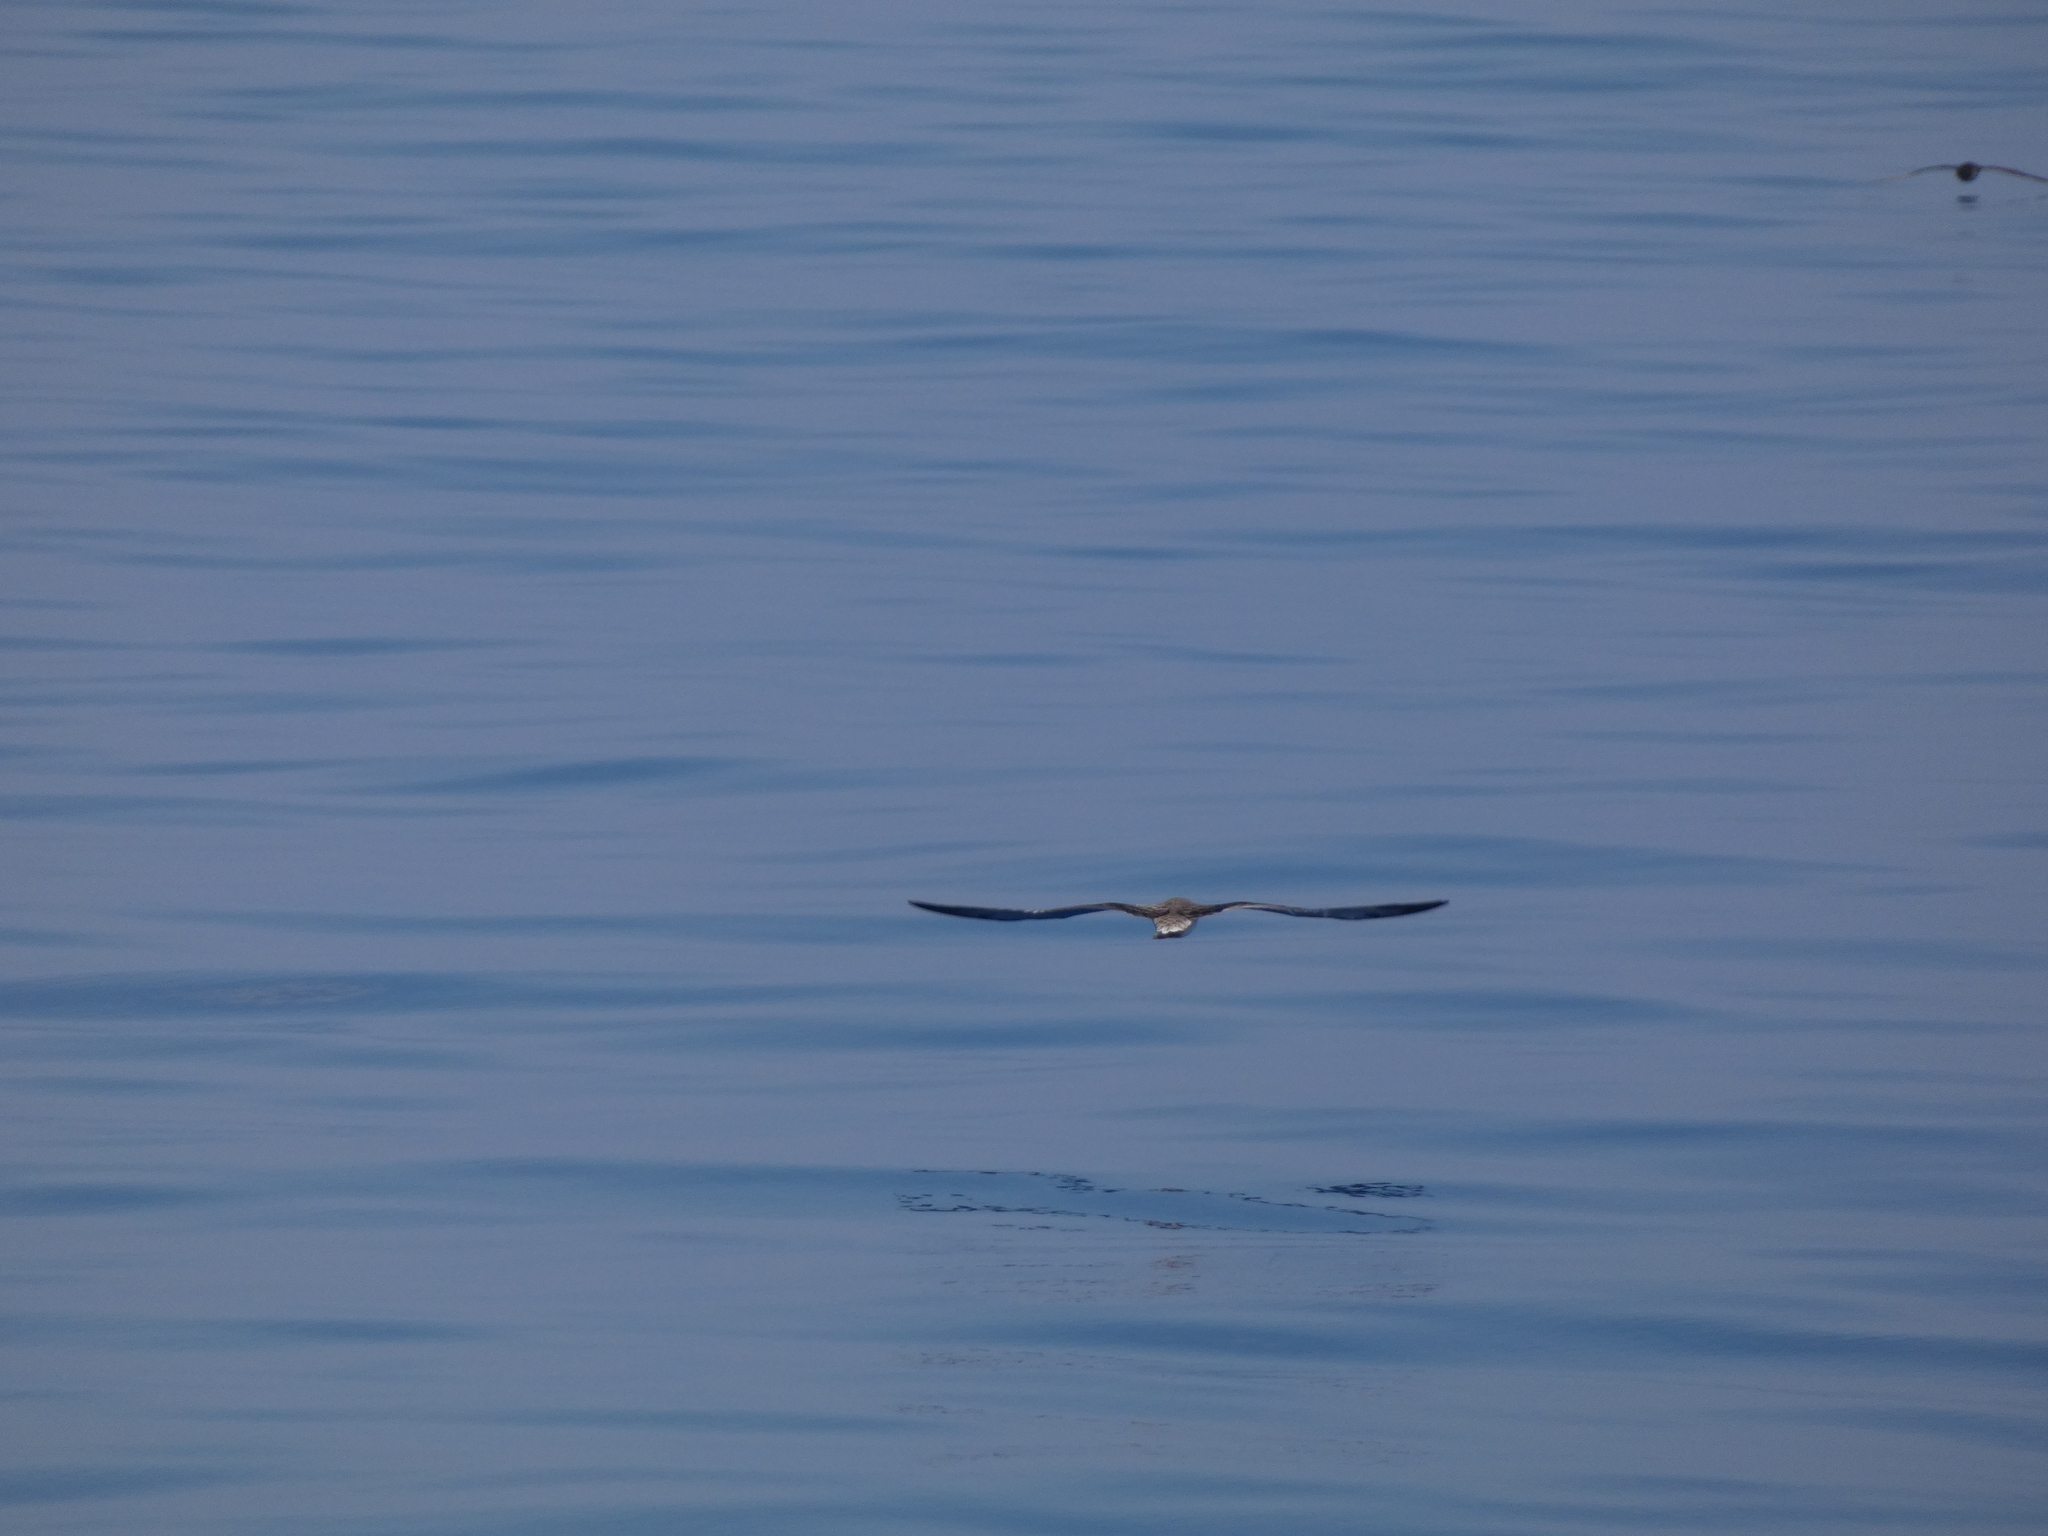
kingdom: Animalia
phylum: Chordata
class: Aves
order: Procellariiformes
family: Procellariidae
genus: Calonectris
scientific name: Calonectris diomedea
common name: Cory's shearwater
